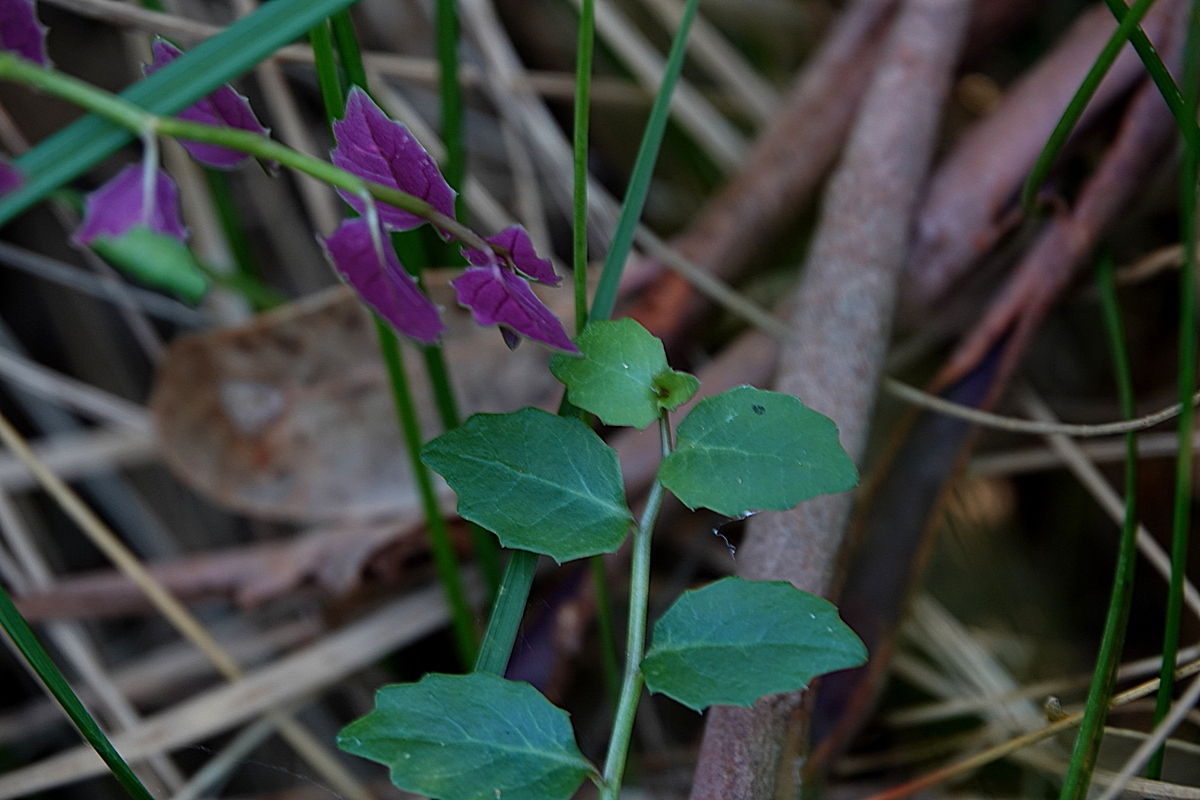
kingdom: Plantae
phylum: Tracheophyta
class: Magnoliopsida
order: Asterales
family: Campanulaceae
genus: Lobelia
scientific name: Lobelia purpurascens
